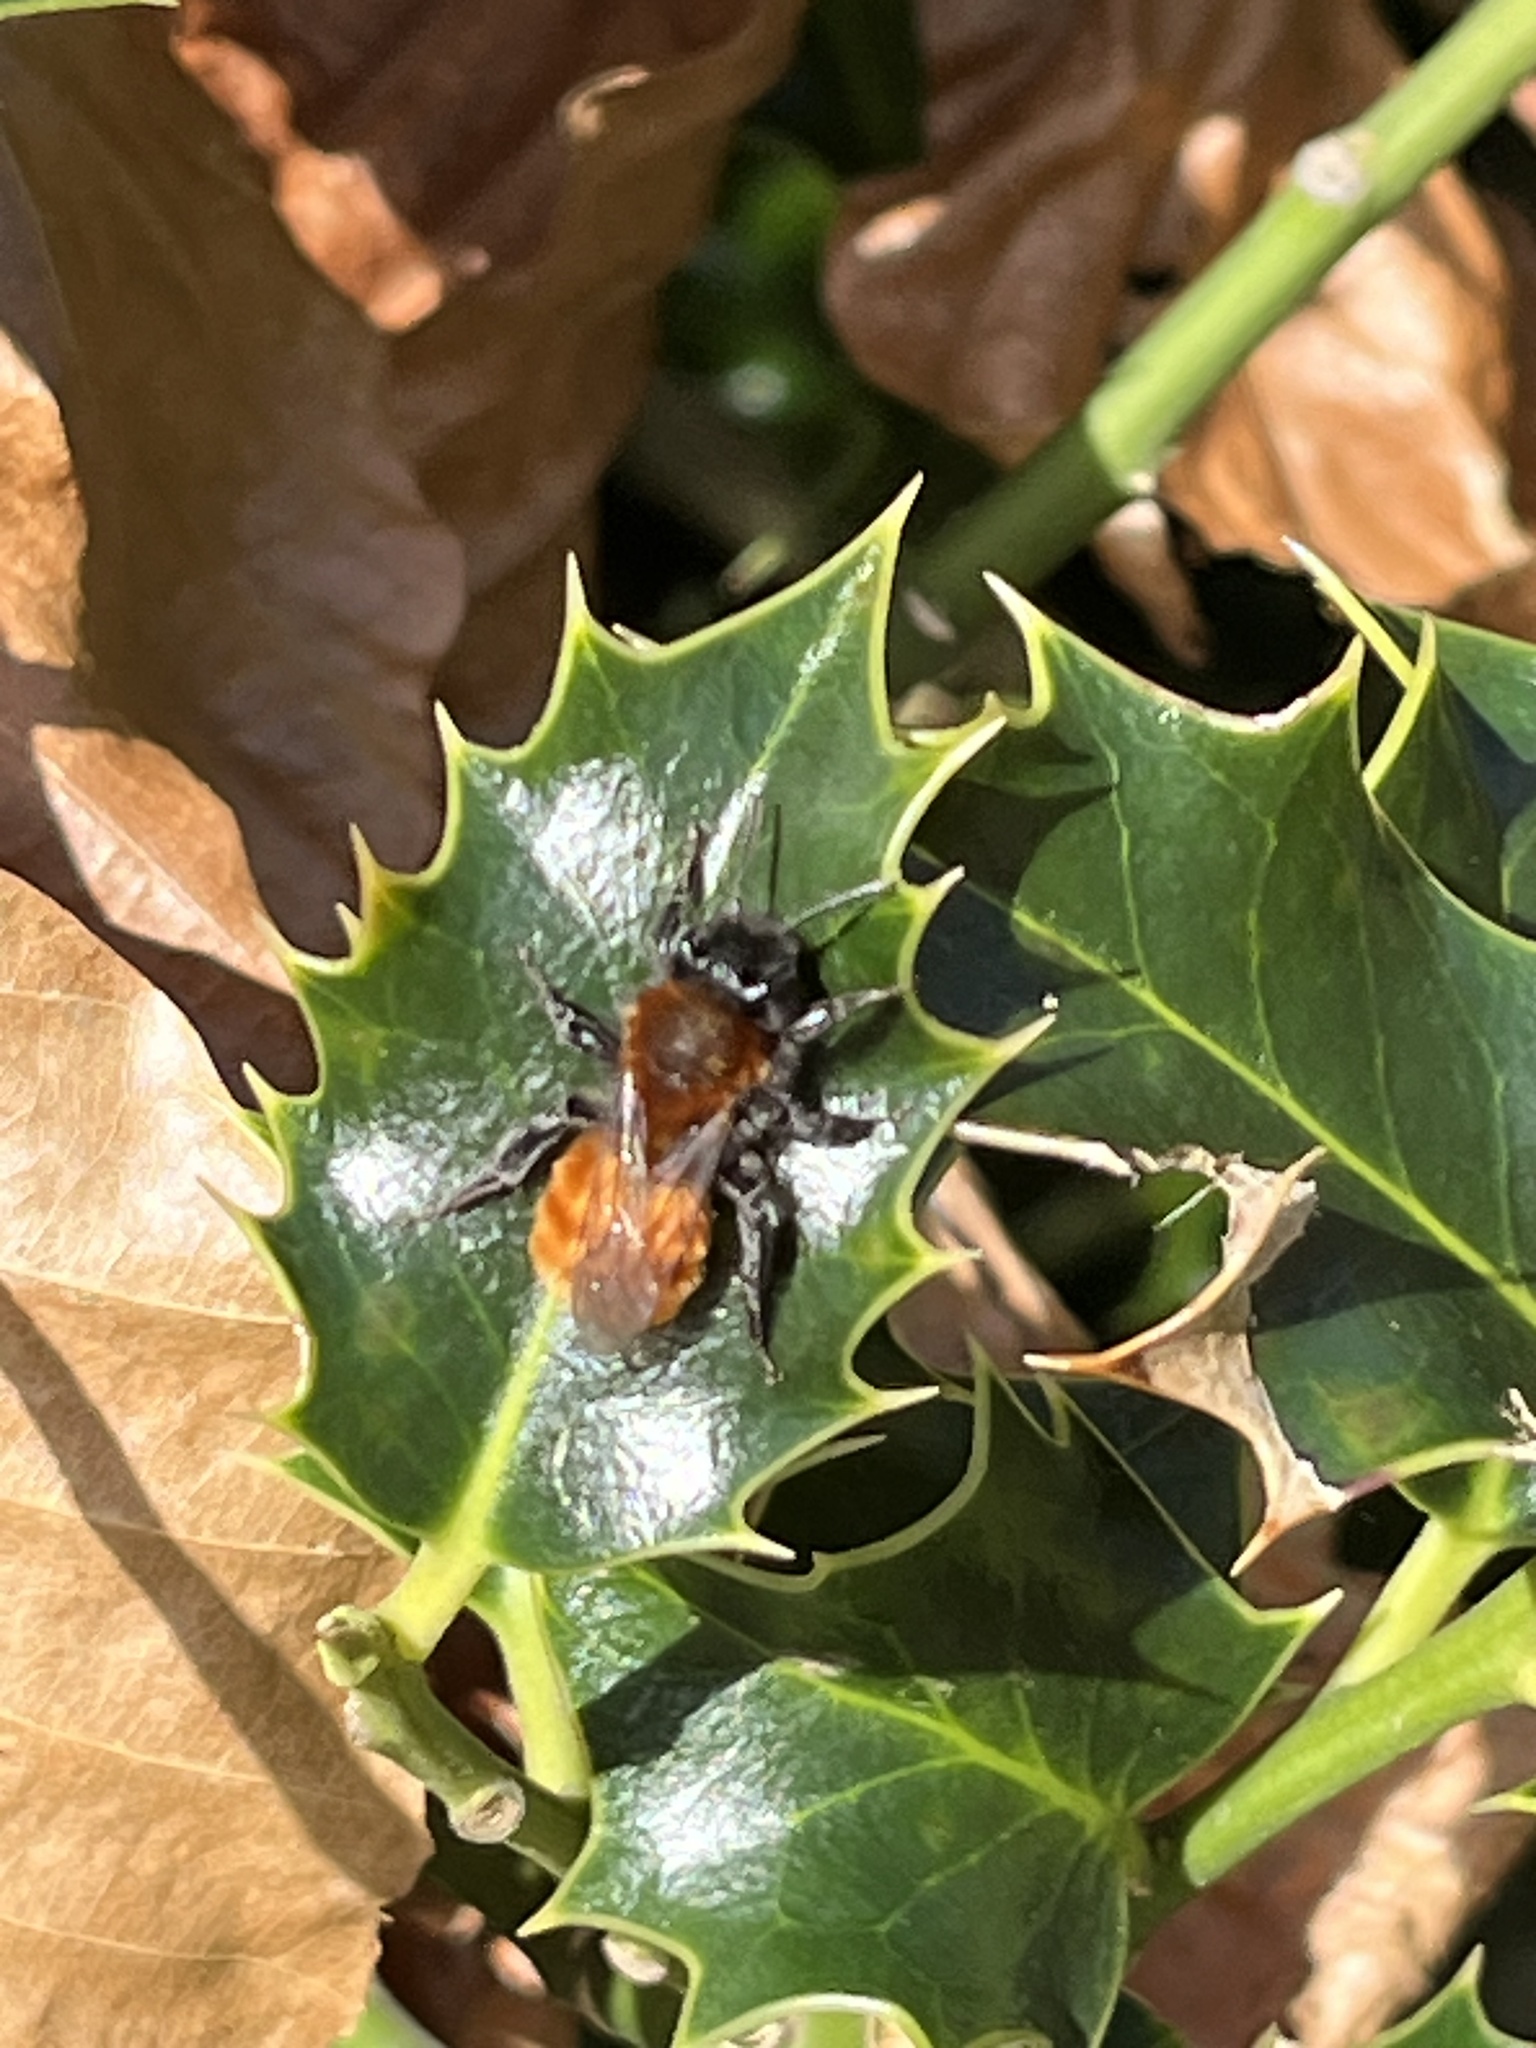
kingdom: Animalia
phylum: Arthropoda
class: Insecta
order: Hymenoptera
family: Andrenidae
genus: Andrena
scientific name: Andrena fulva
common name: Tawny mining bee
